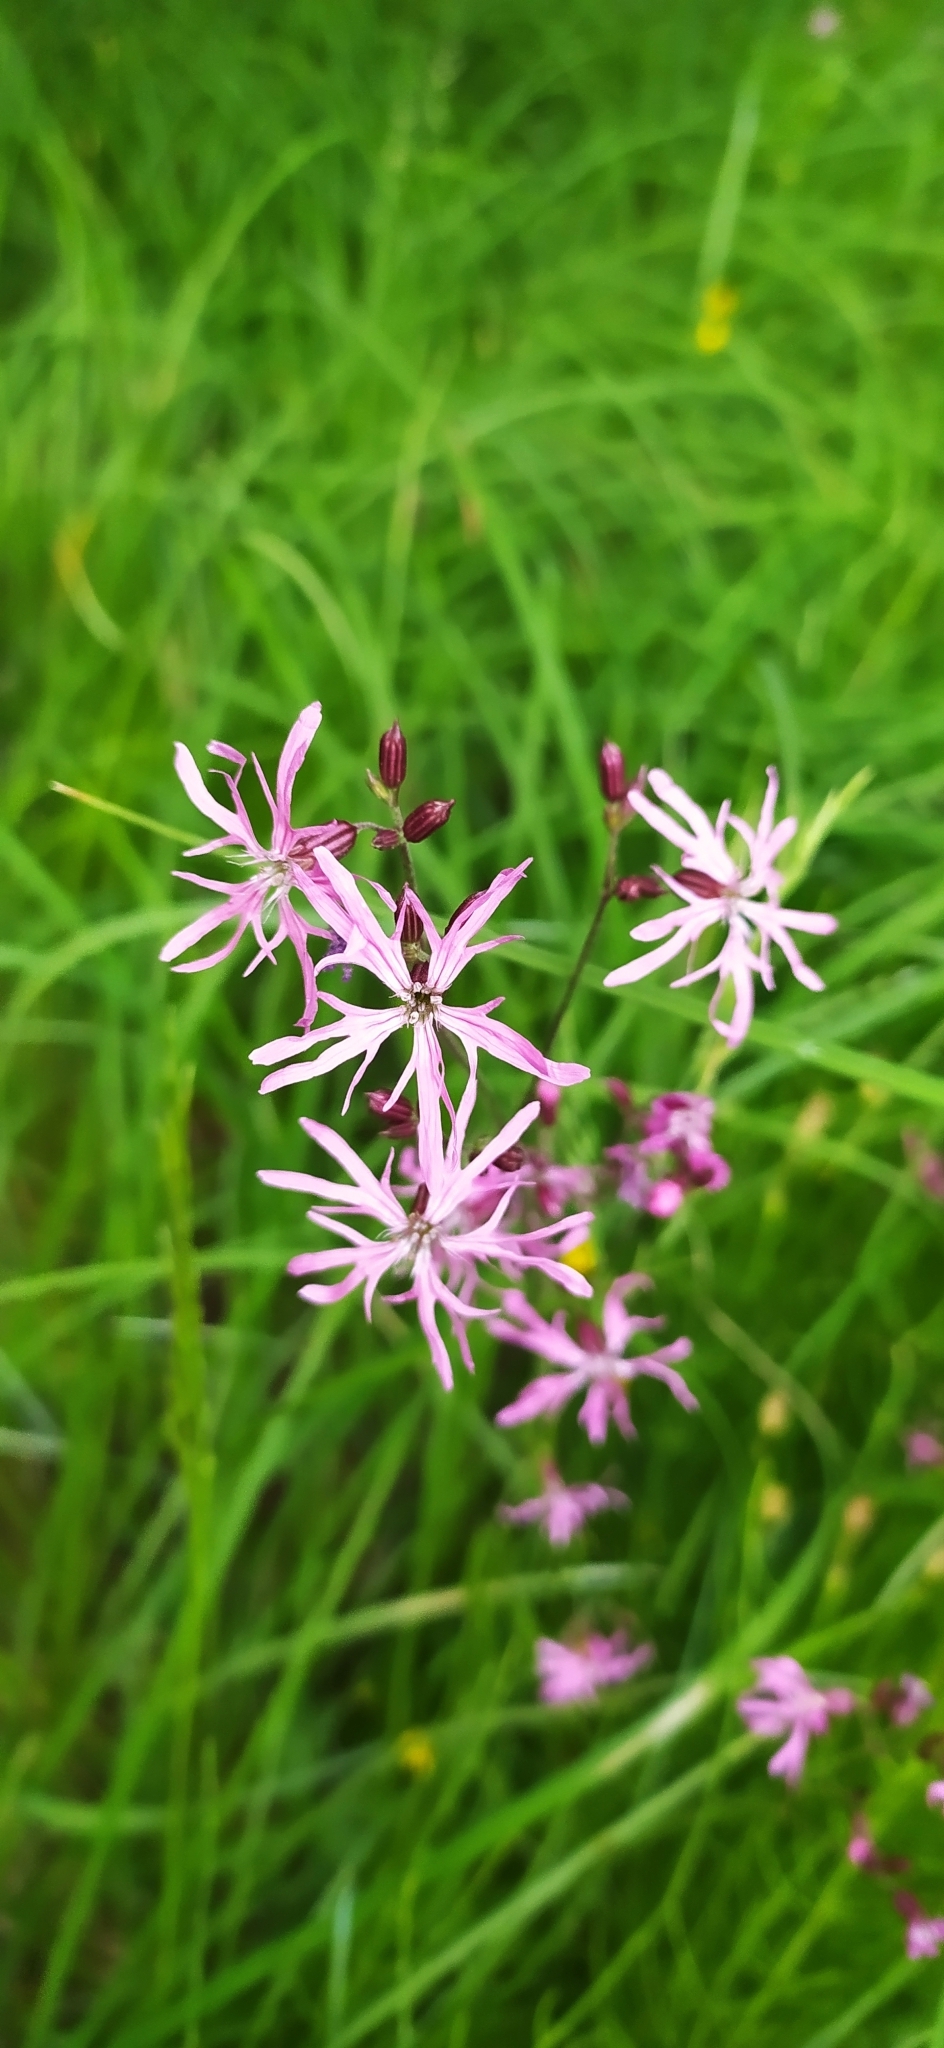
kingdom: Plantae
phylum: Tracheophyta
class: Magnoliopsida
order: Caryophyllales
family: Caryophyllaceae
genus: Silene
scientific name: Silene flos-cuculi
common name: Ragged-robin
